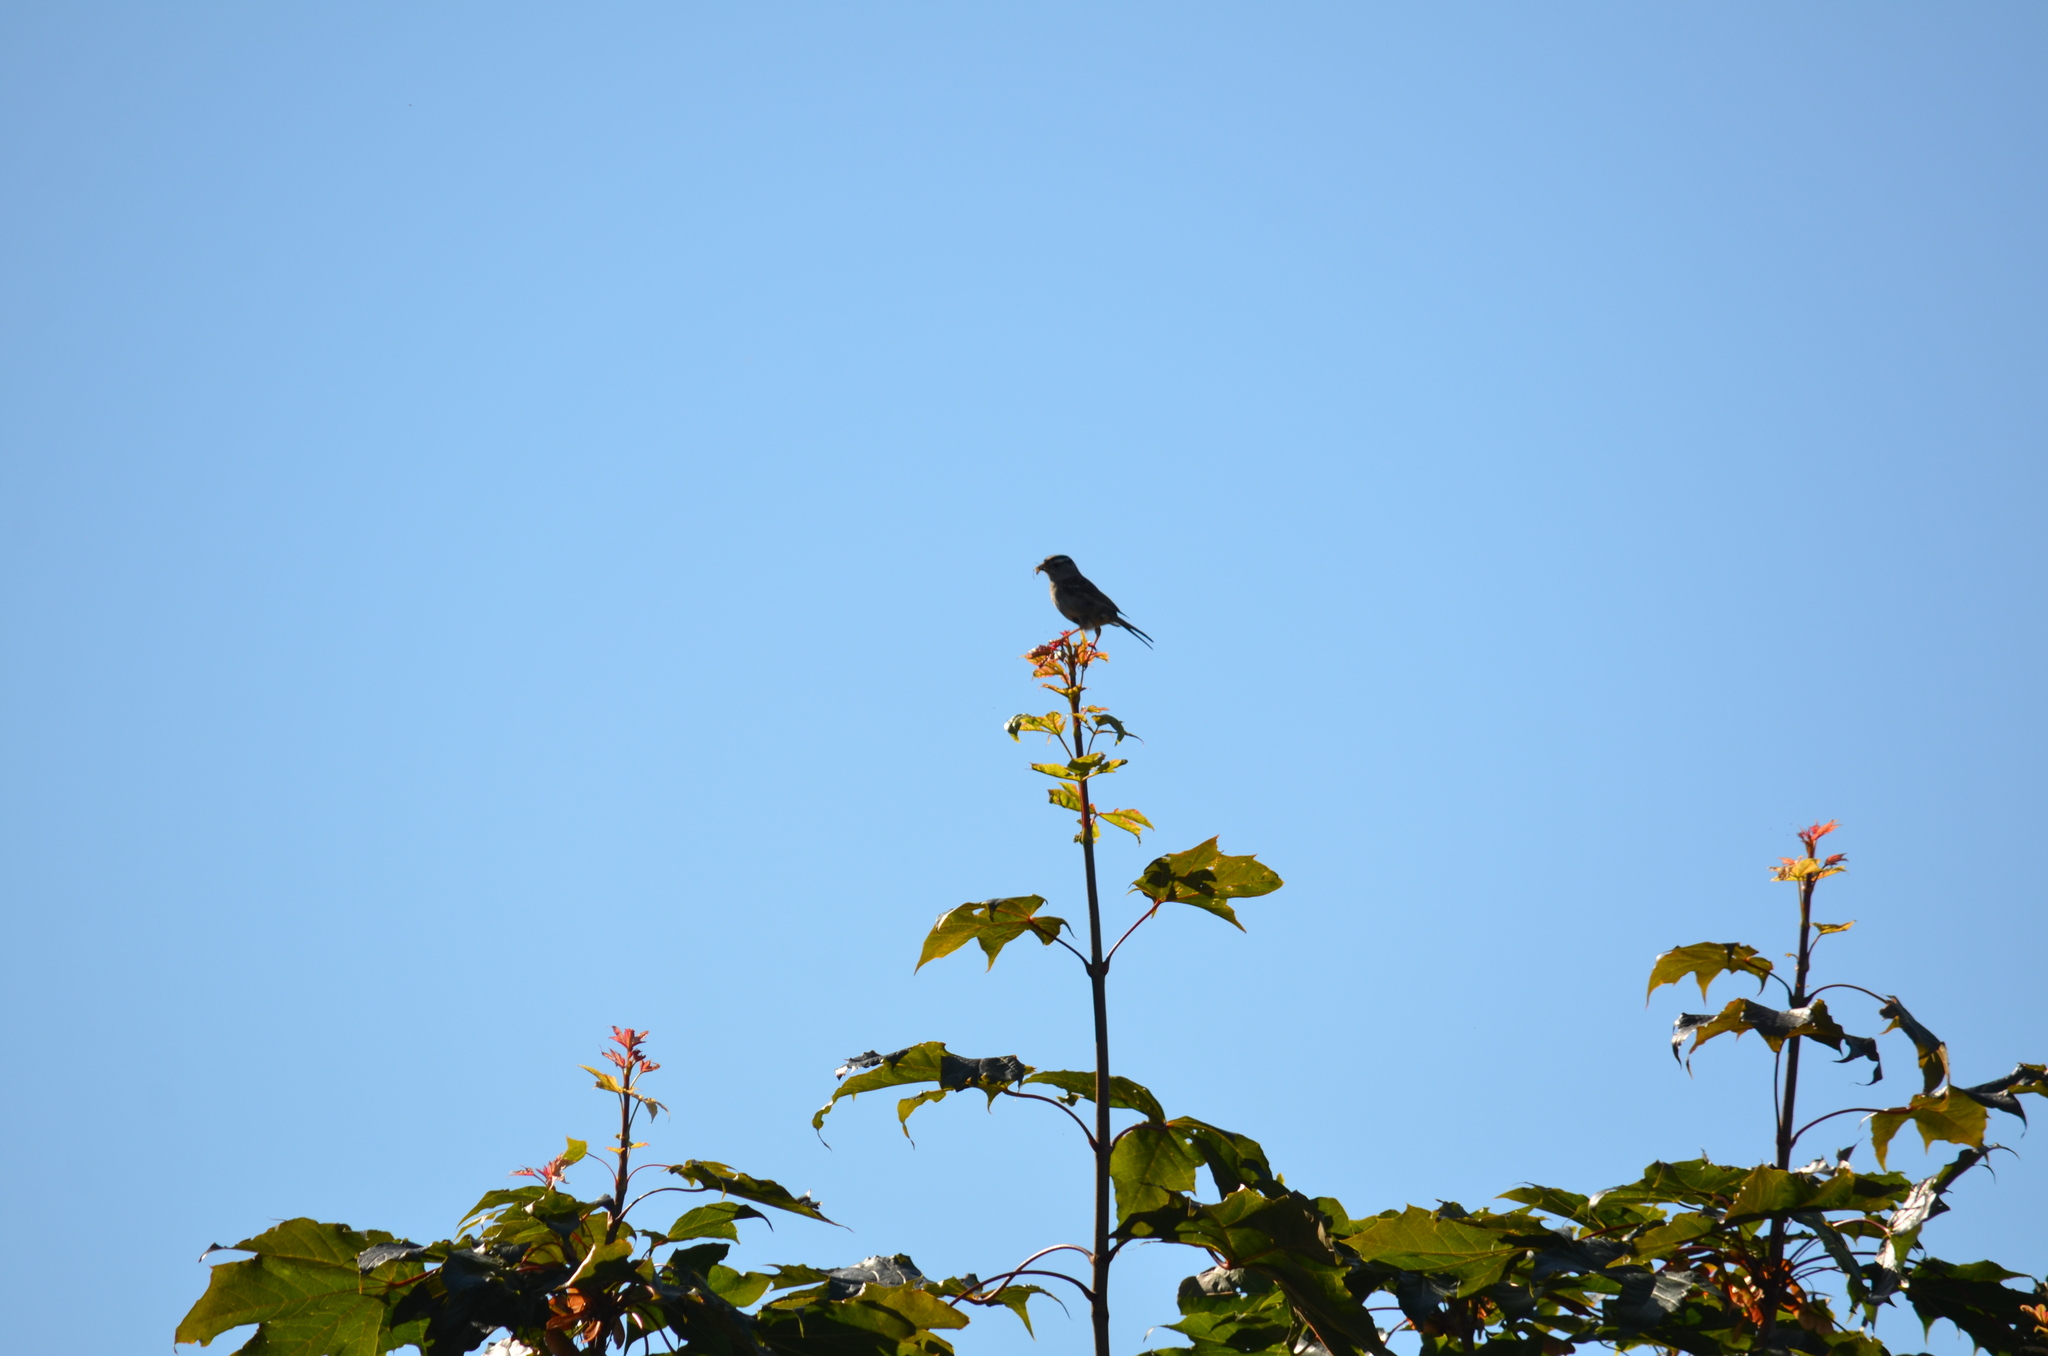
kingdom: Animalia
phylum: Chordata
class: Aves
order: Passeriformes
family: Passerellidae
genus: Zonotrichia
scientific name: Zonotrichia leucophrys
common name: White-crowned sparrow
